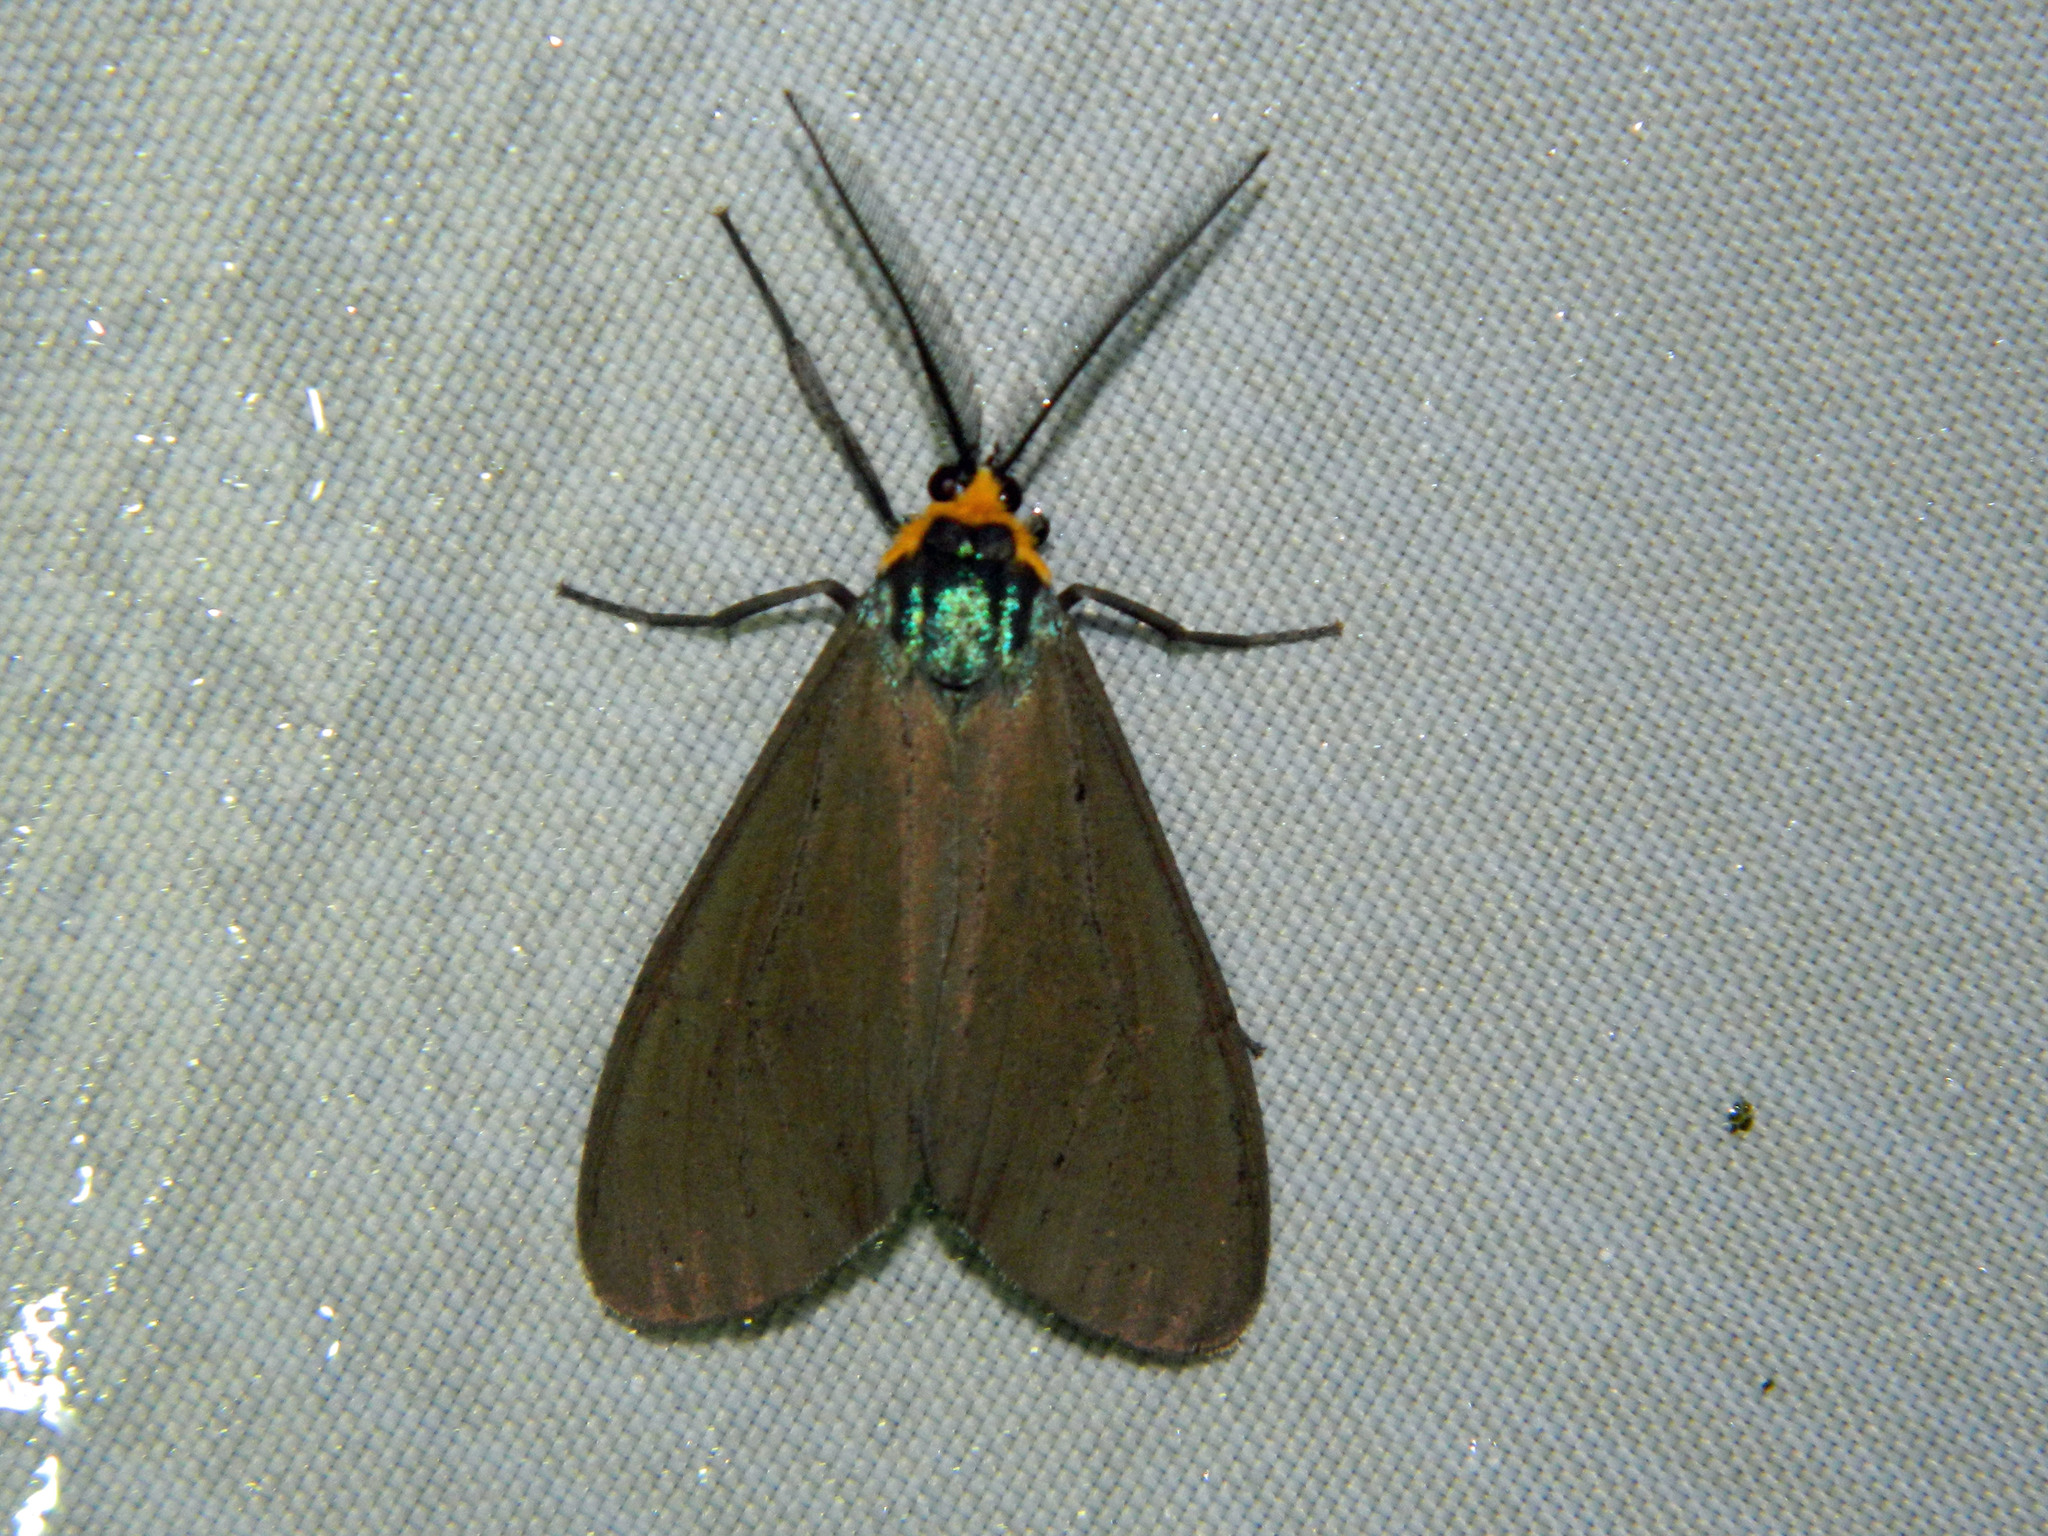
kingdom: Animalia
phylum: Arthropoda
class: Insecta
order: Lepidoptera
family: Erebidae
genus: Ctenucha
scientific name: Ctenucha virginica
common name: Virginia ctenucha moth
